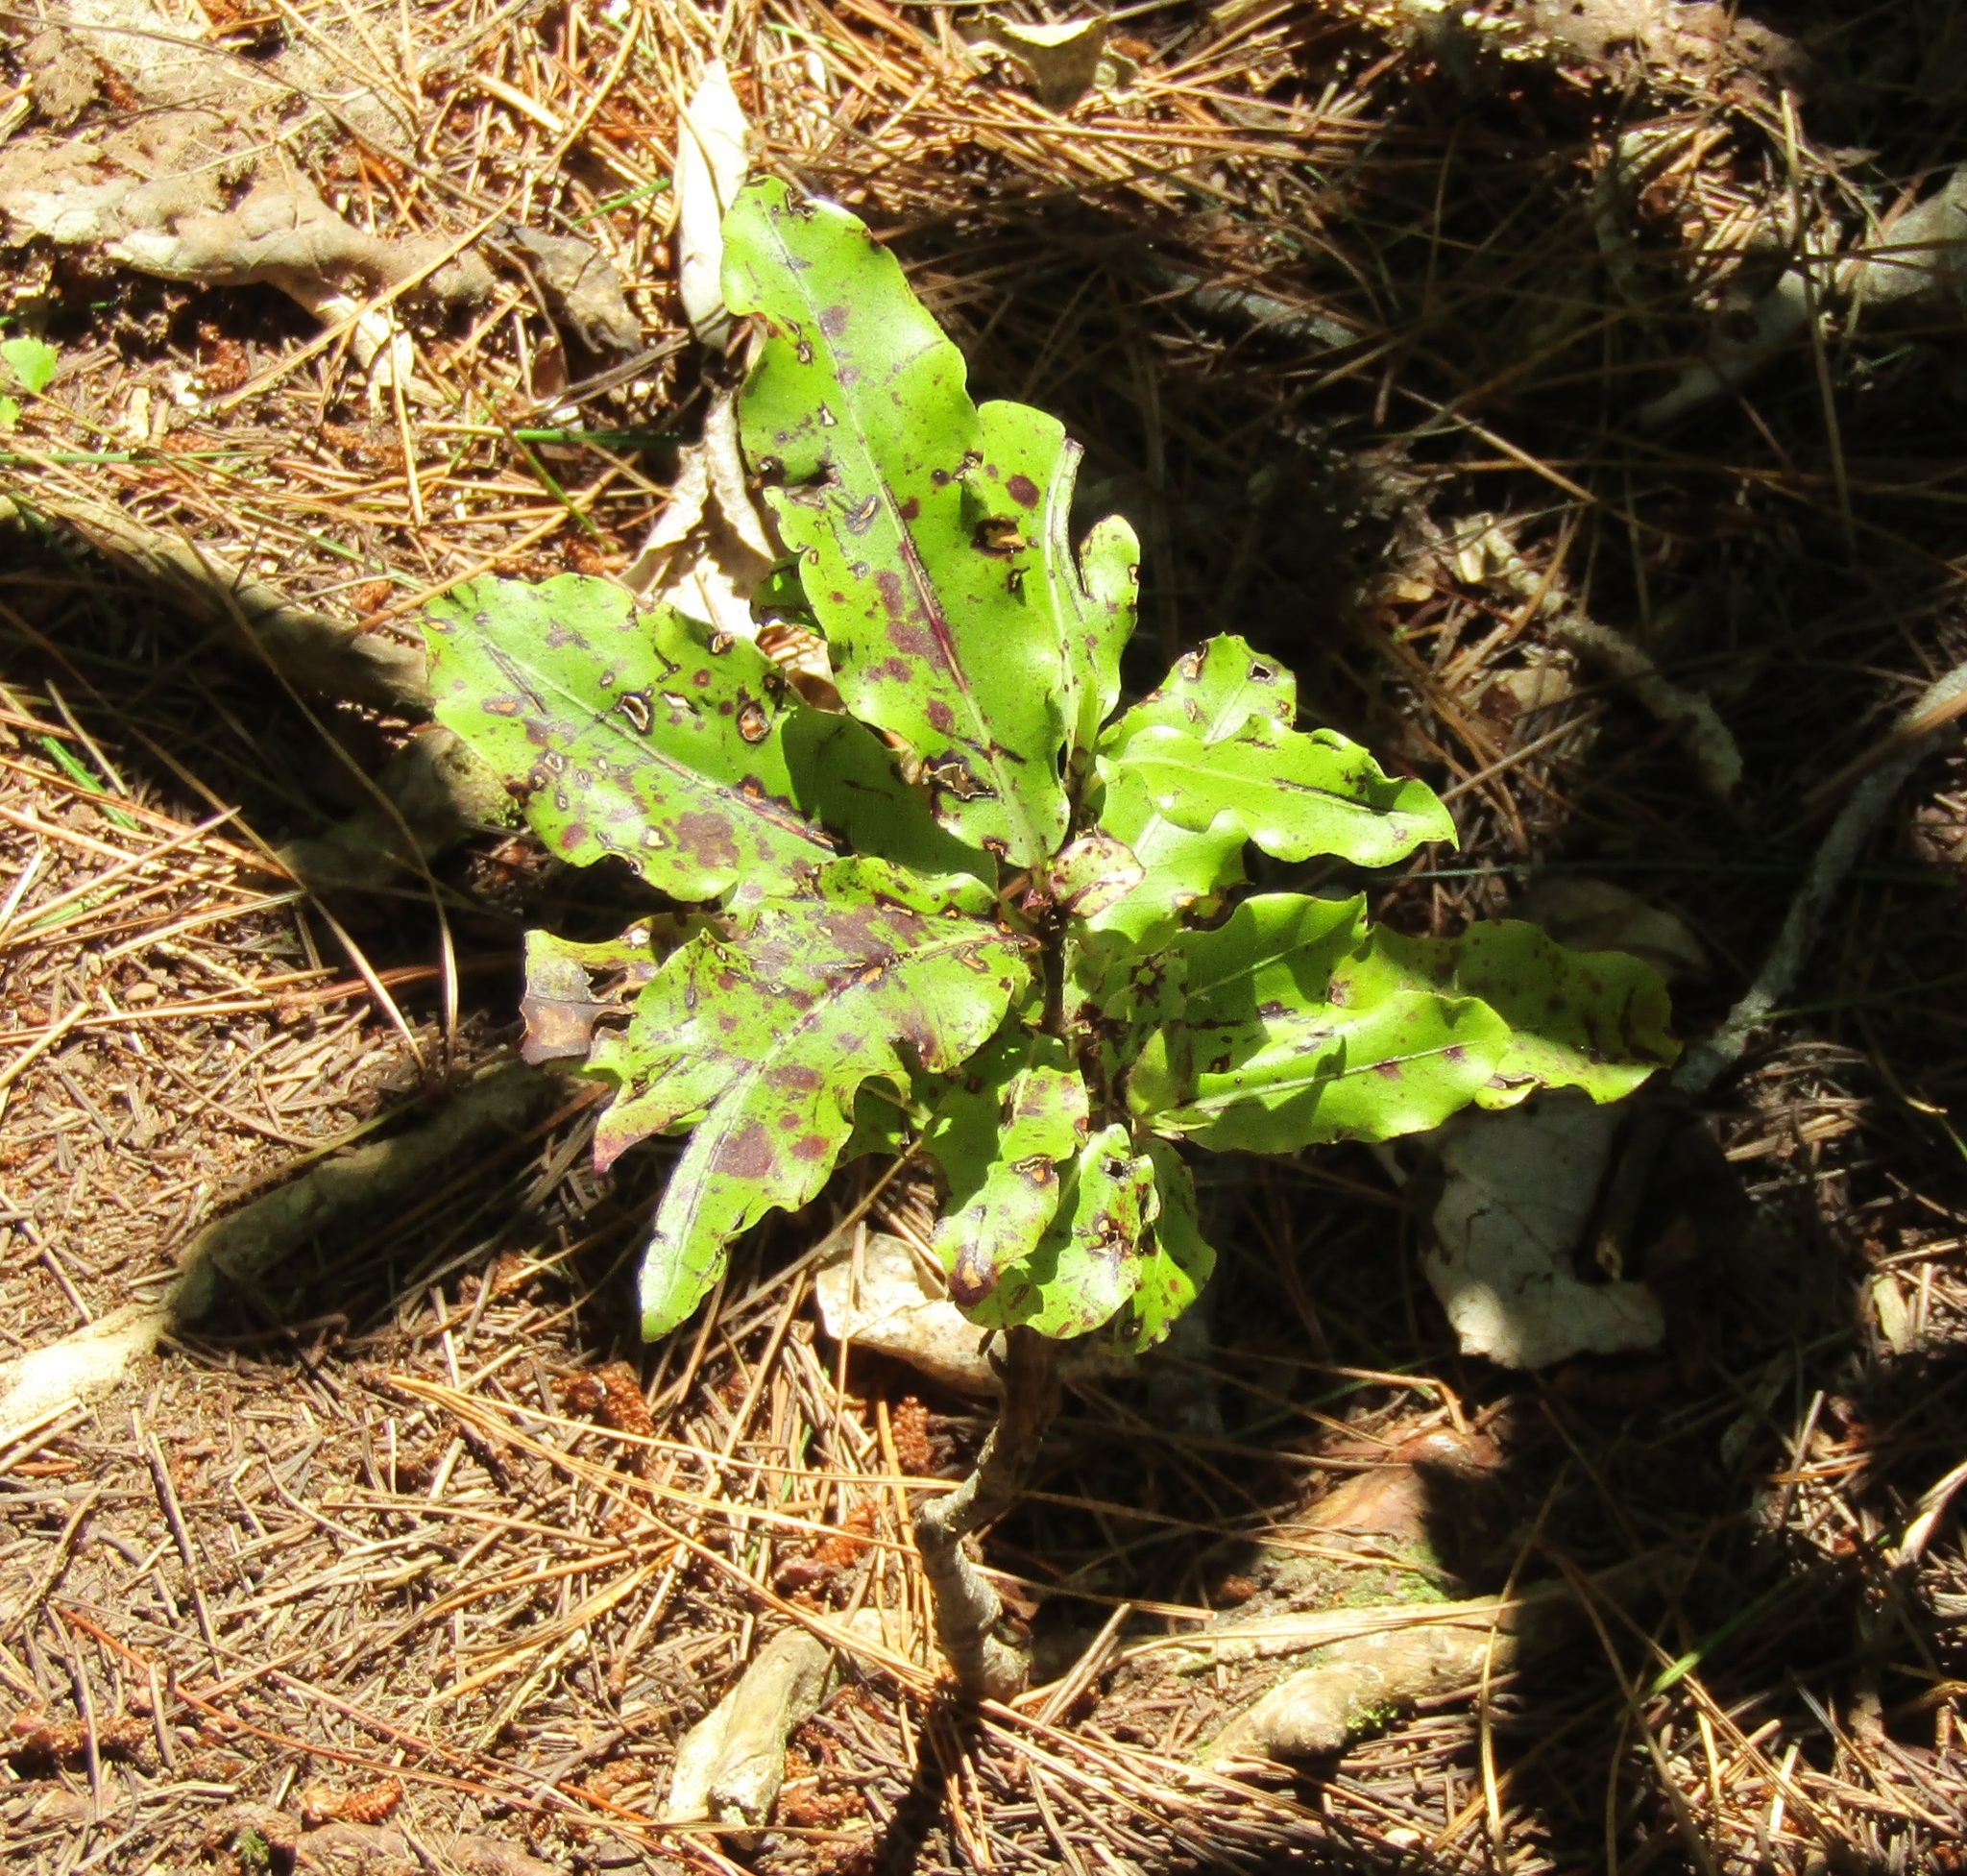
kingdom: Plantae
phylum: Tracheophyta
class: Magnoliopsida
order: Apiales
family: Pittosporaceae
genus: Pittosporum
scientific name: Pittosporum eugenioides
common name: Lemonwood
